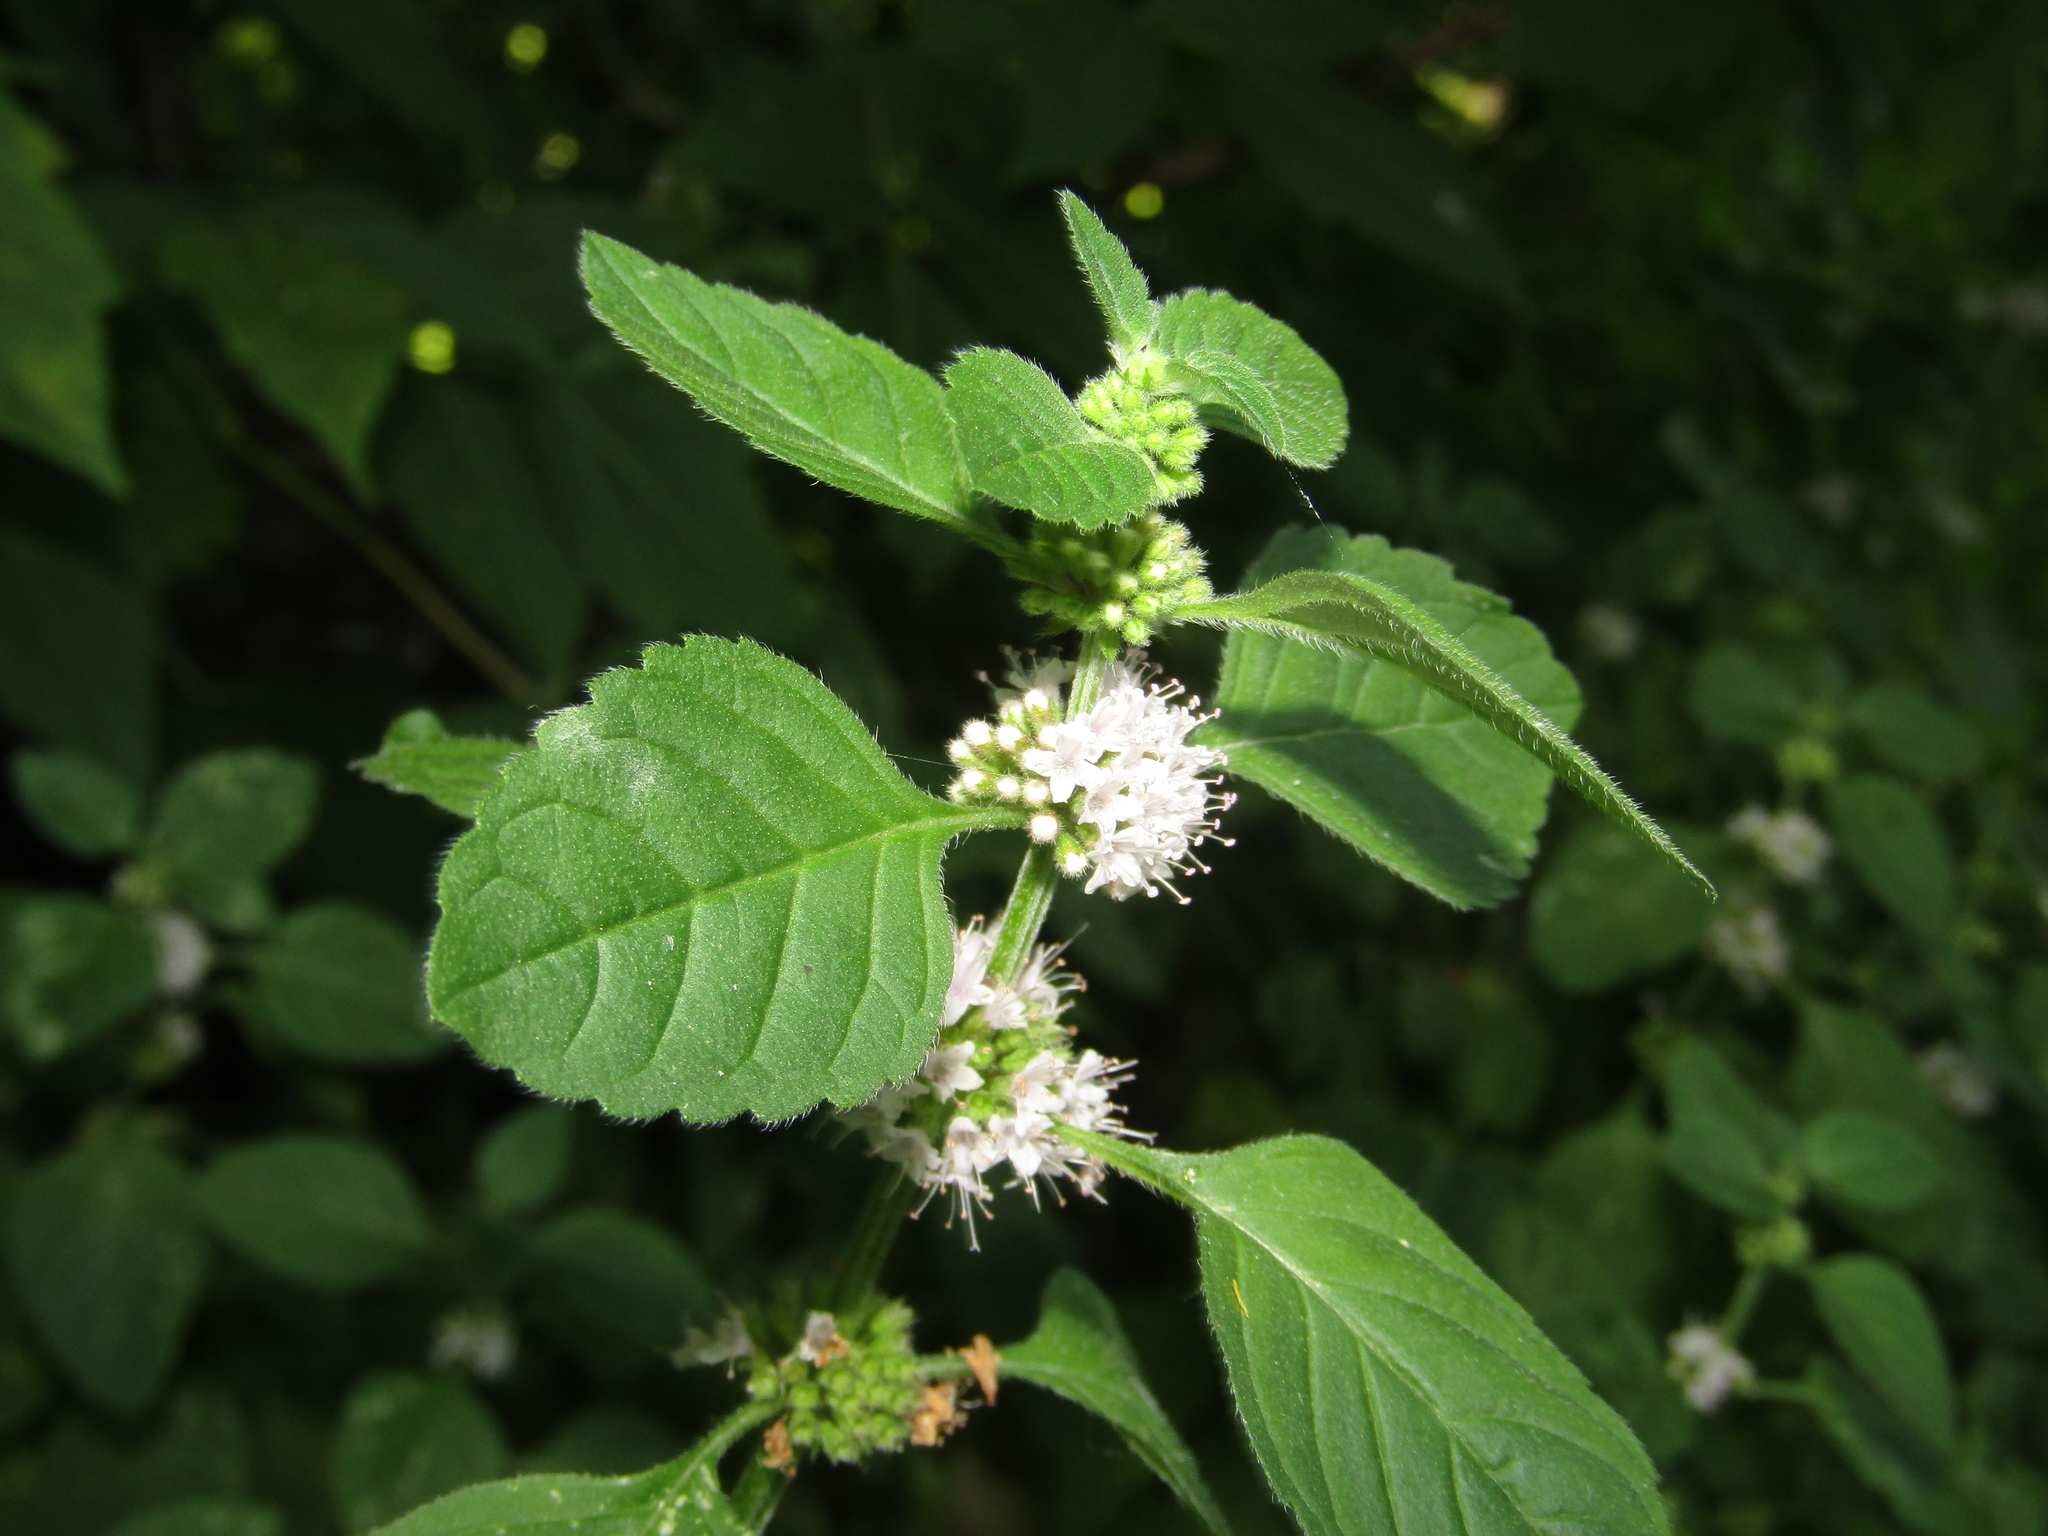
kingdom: Plantae
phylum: Tracheophyta
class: Magnoliopsida
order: Lamiales
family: Lamiaceae
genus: Mentha
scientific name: Mentha arvensis
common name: Corn mint
